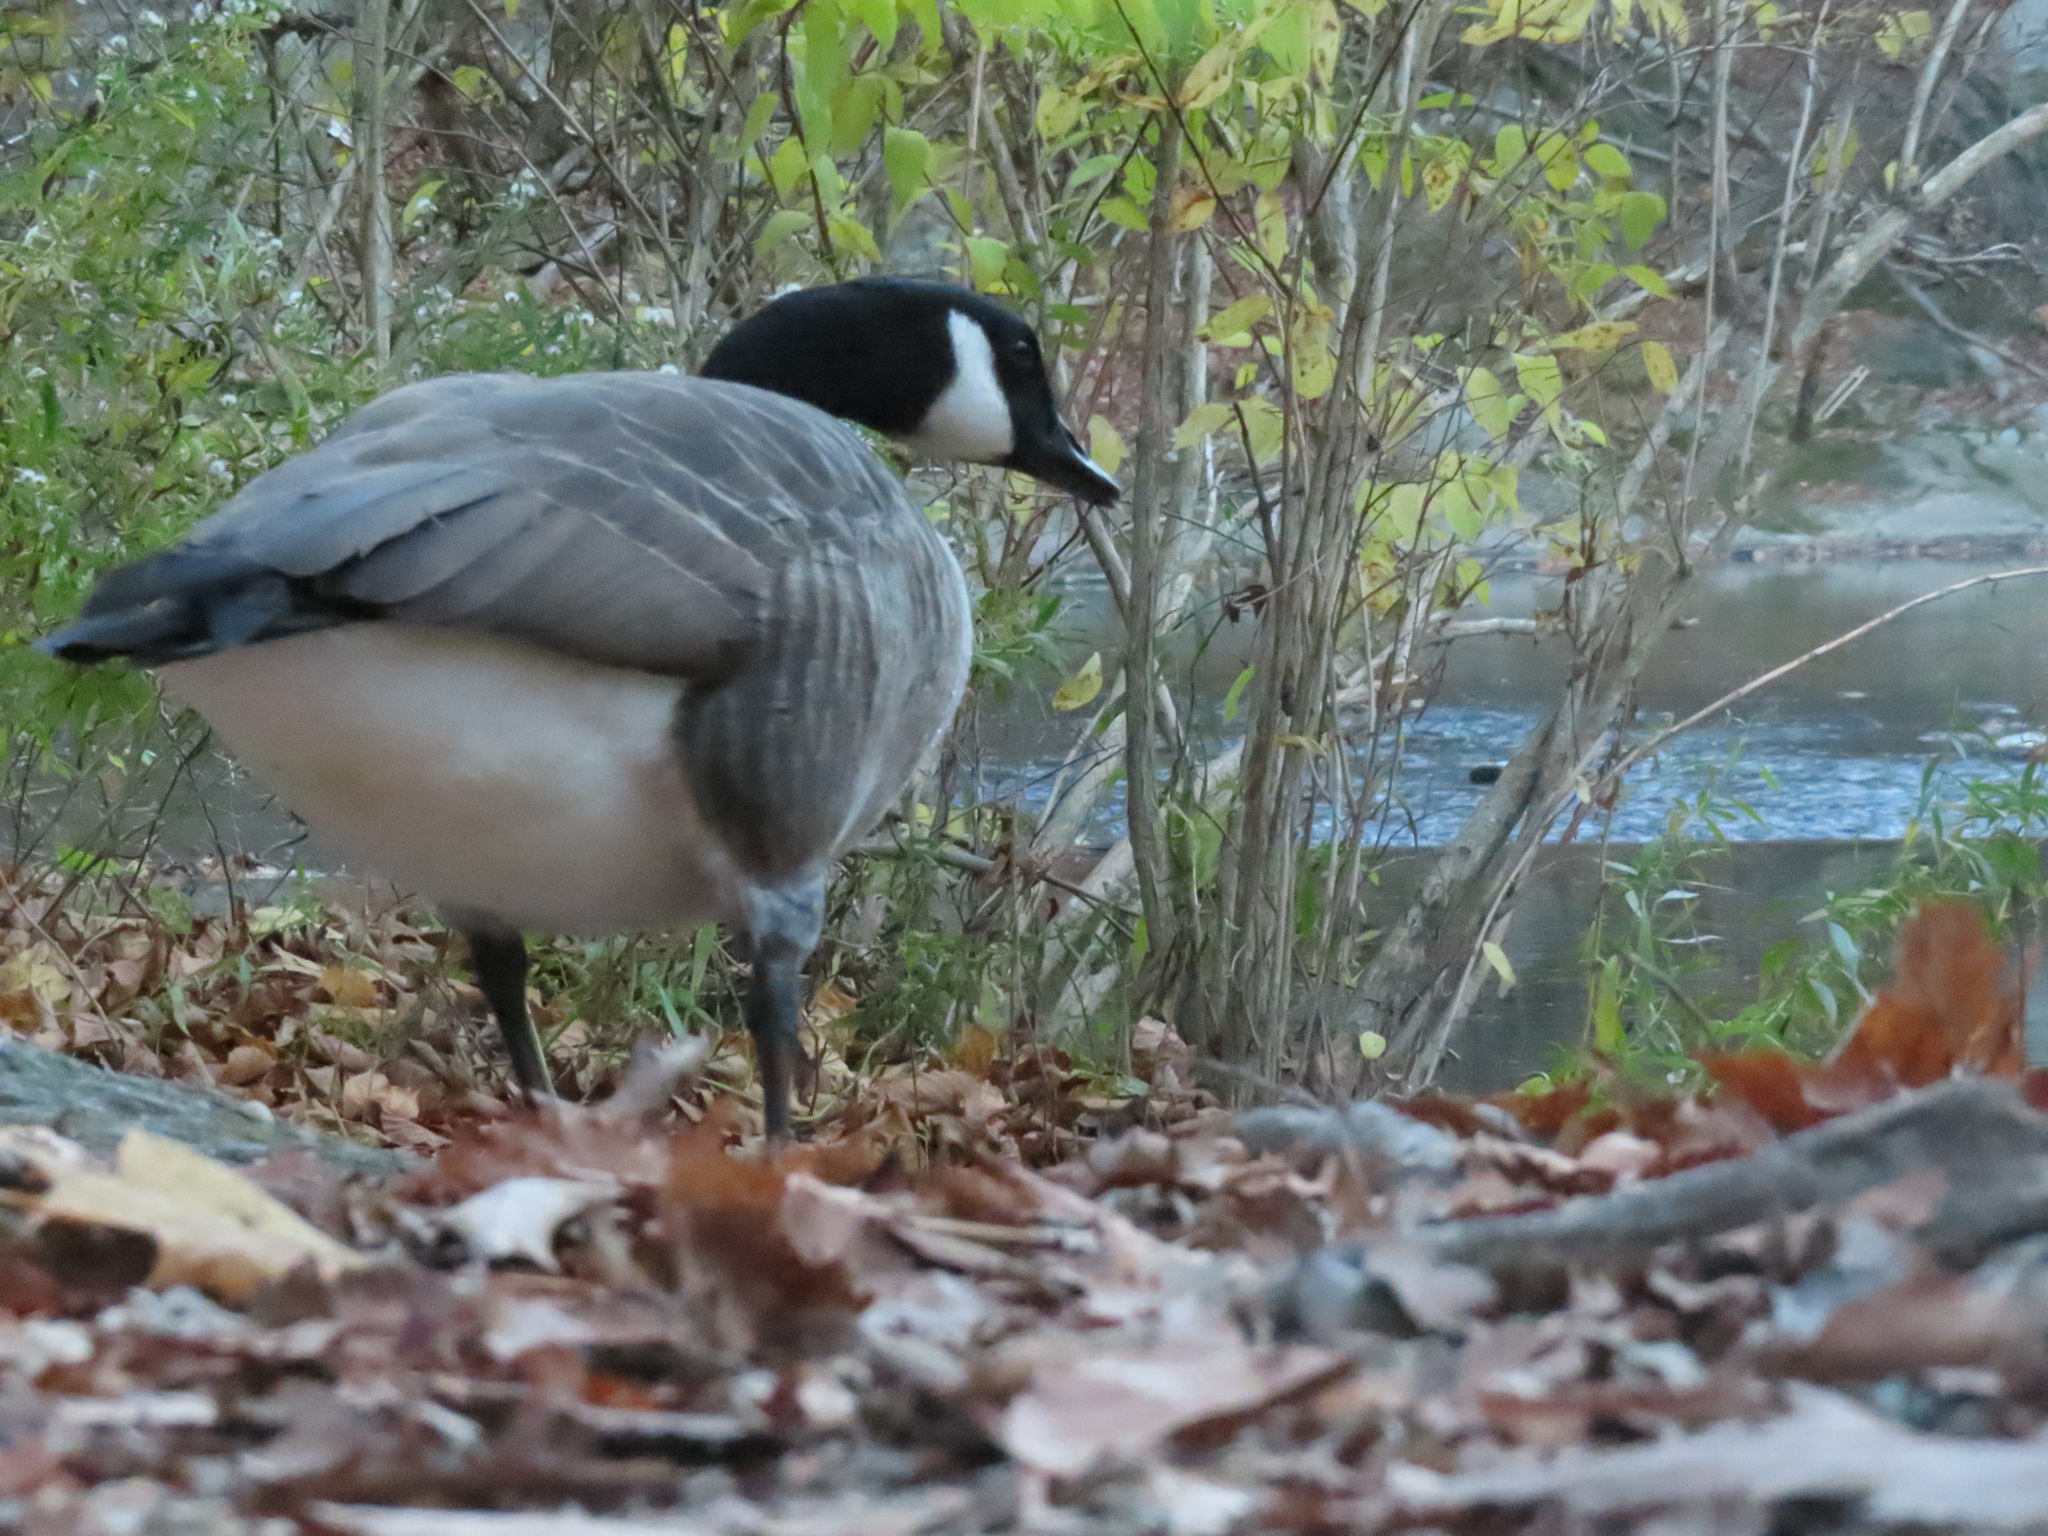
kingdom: Animalia
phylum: Chordata
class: Aves
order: Anseriformes
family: Anatidae
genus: Branta
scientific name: Branta canadensis
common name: Canada goose
